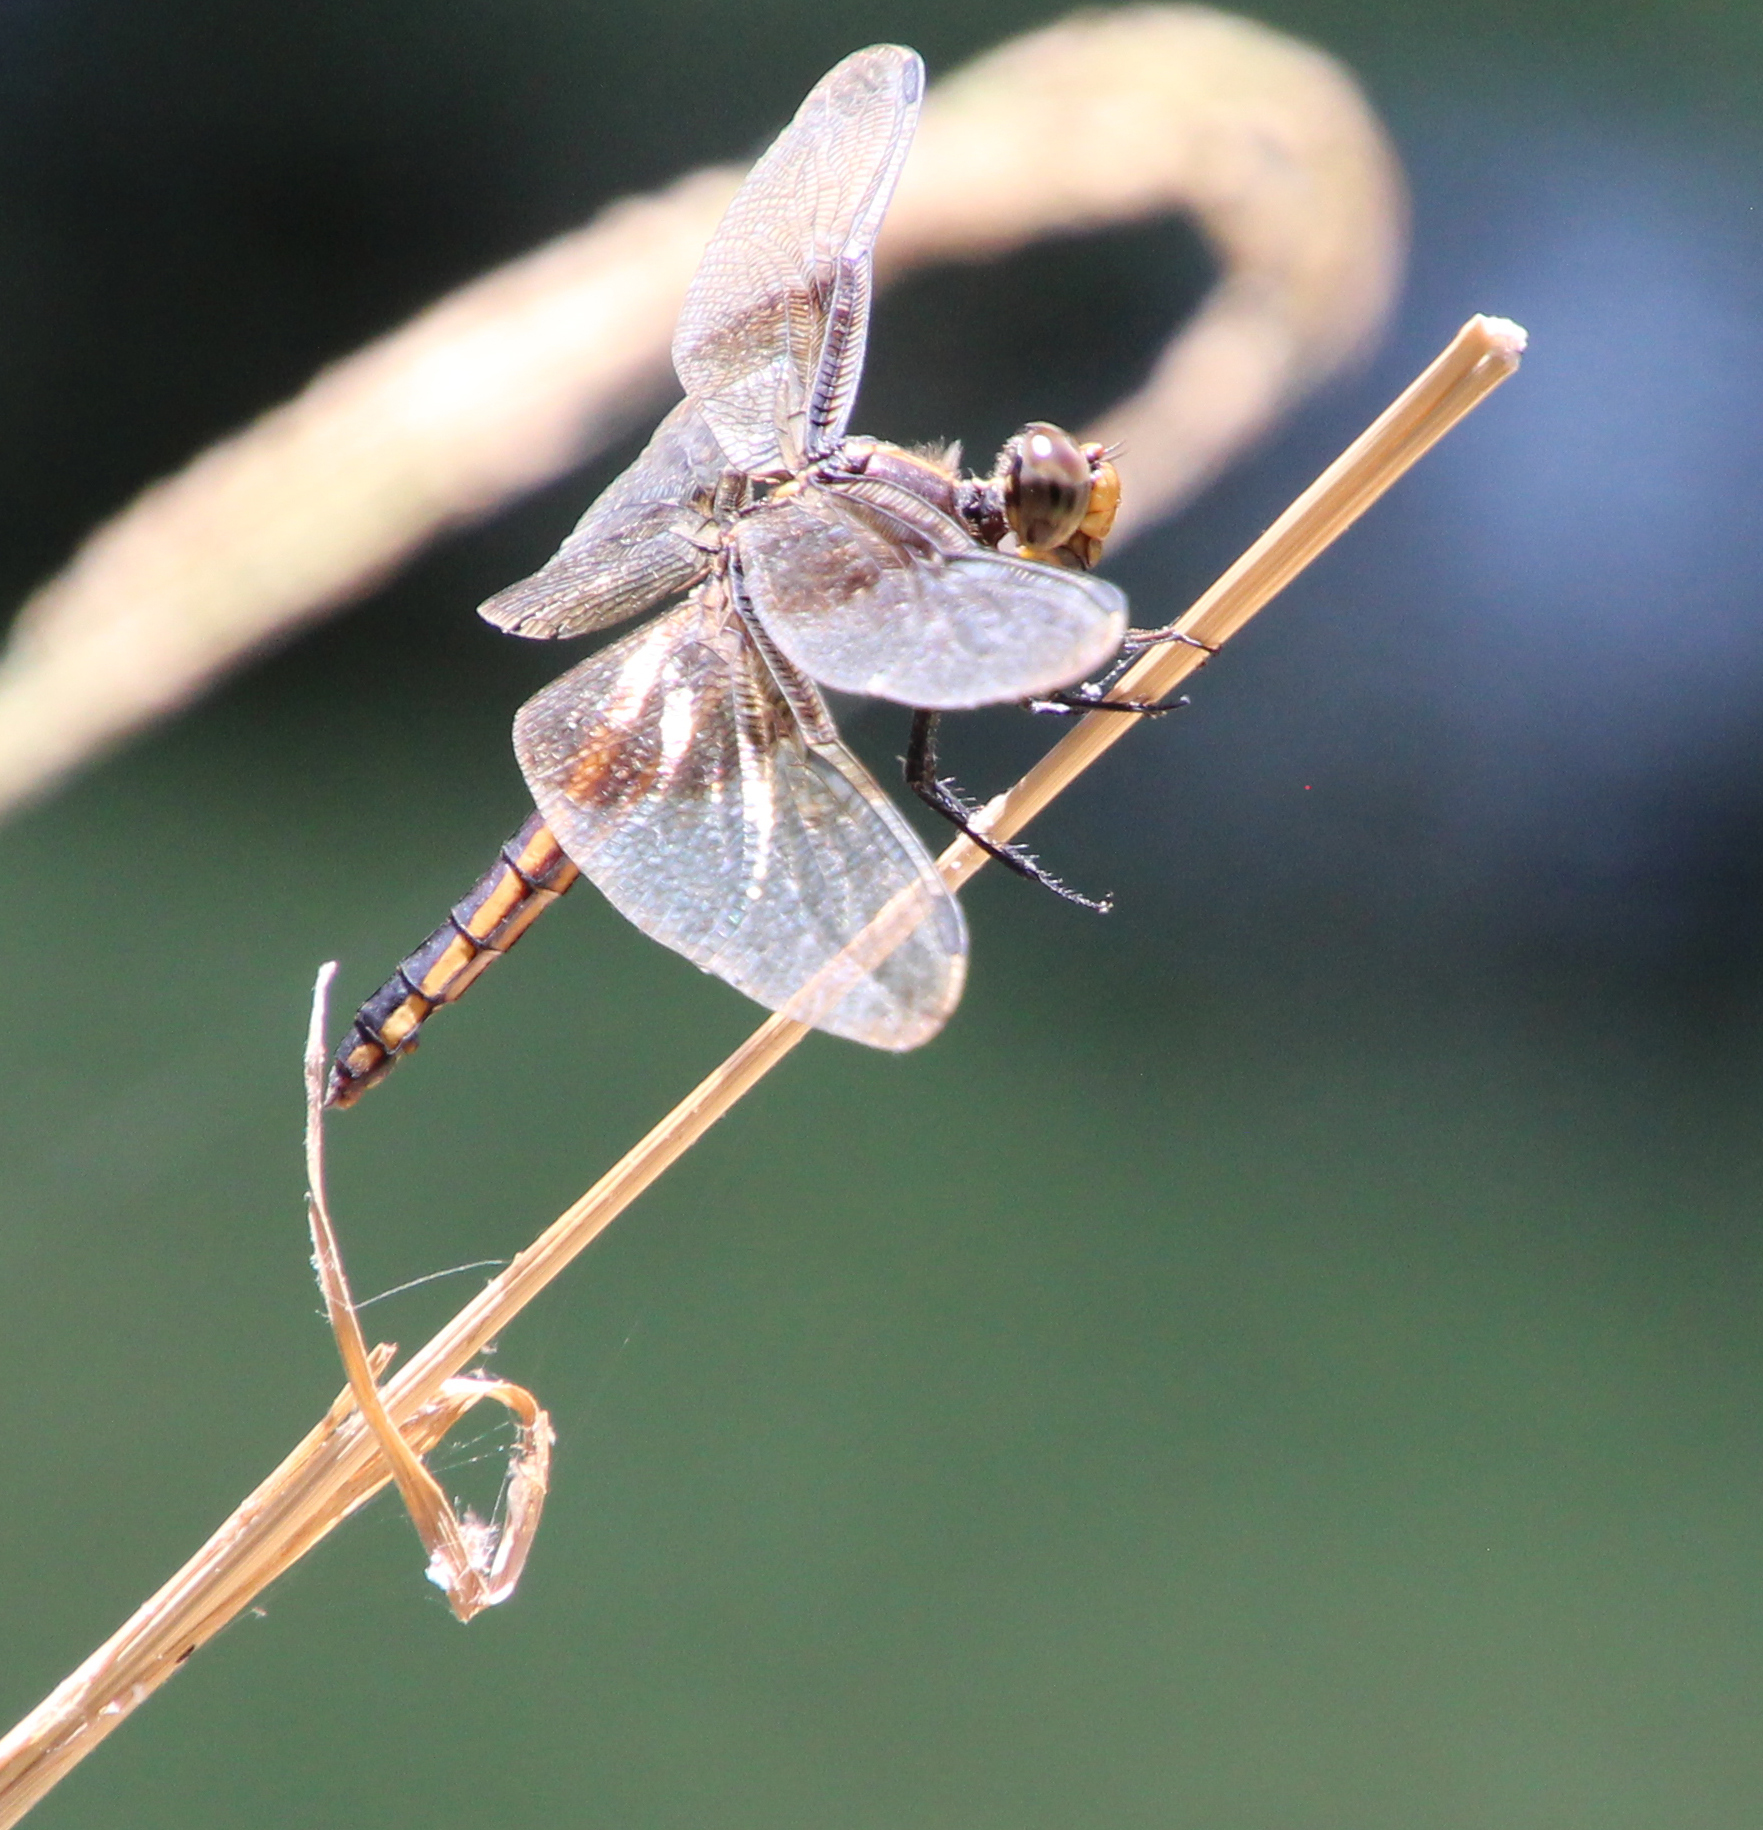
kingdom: Animalia
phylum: Arthropoda
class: Insecta
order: Odonata
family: Libellulidae
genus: Libellula
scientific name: Libellula luctuosa
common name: Widow skimmer
